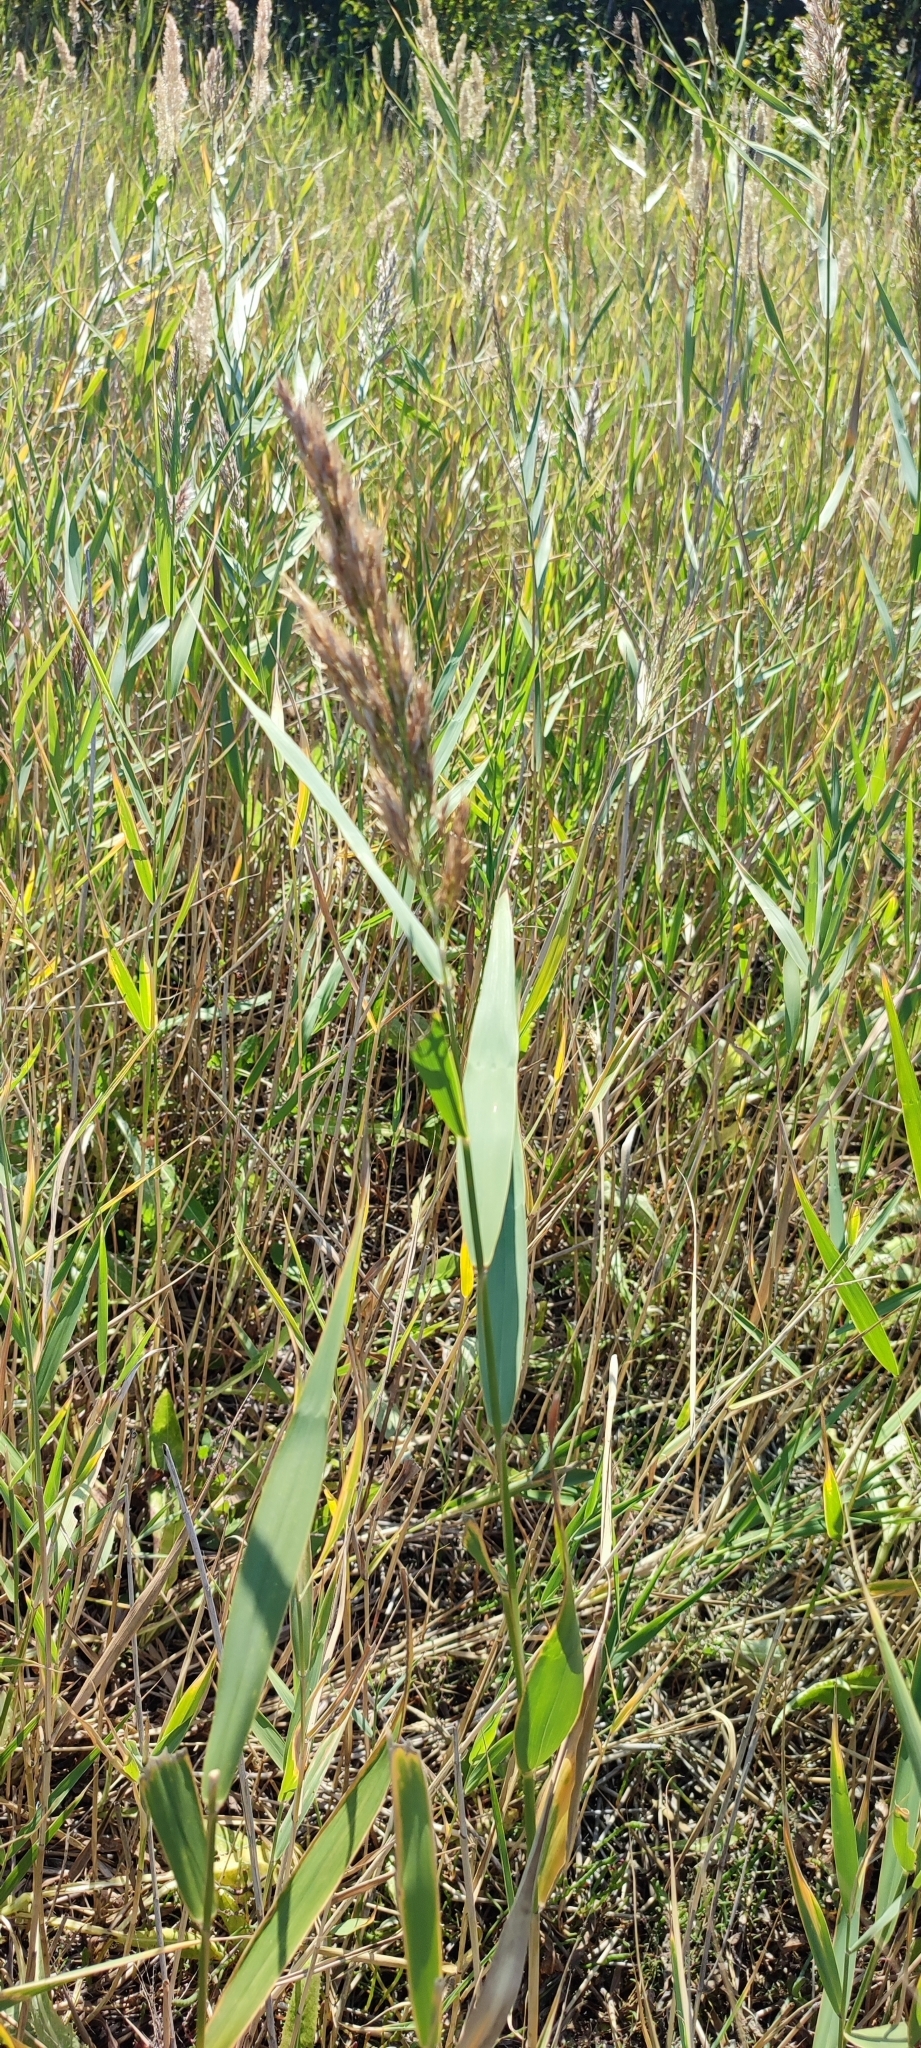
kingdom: Plantae
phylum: Tracheophyta
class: Liliopsida
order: Poales
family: Poaceae
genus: Phragmites
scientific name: Phragmites australis
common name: Common reed
